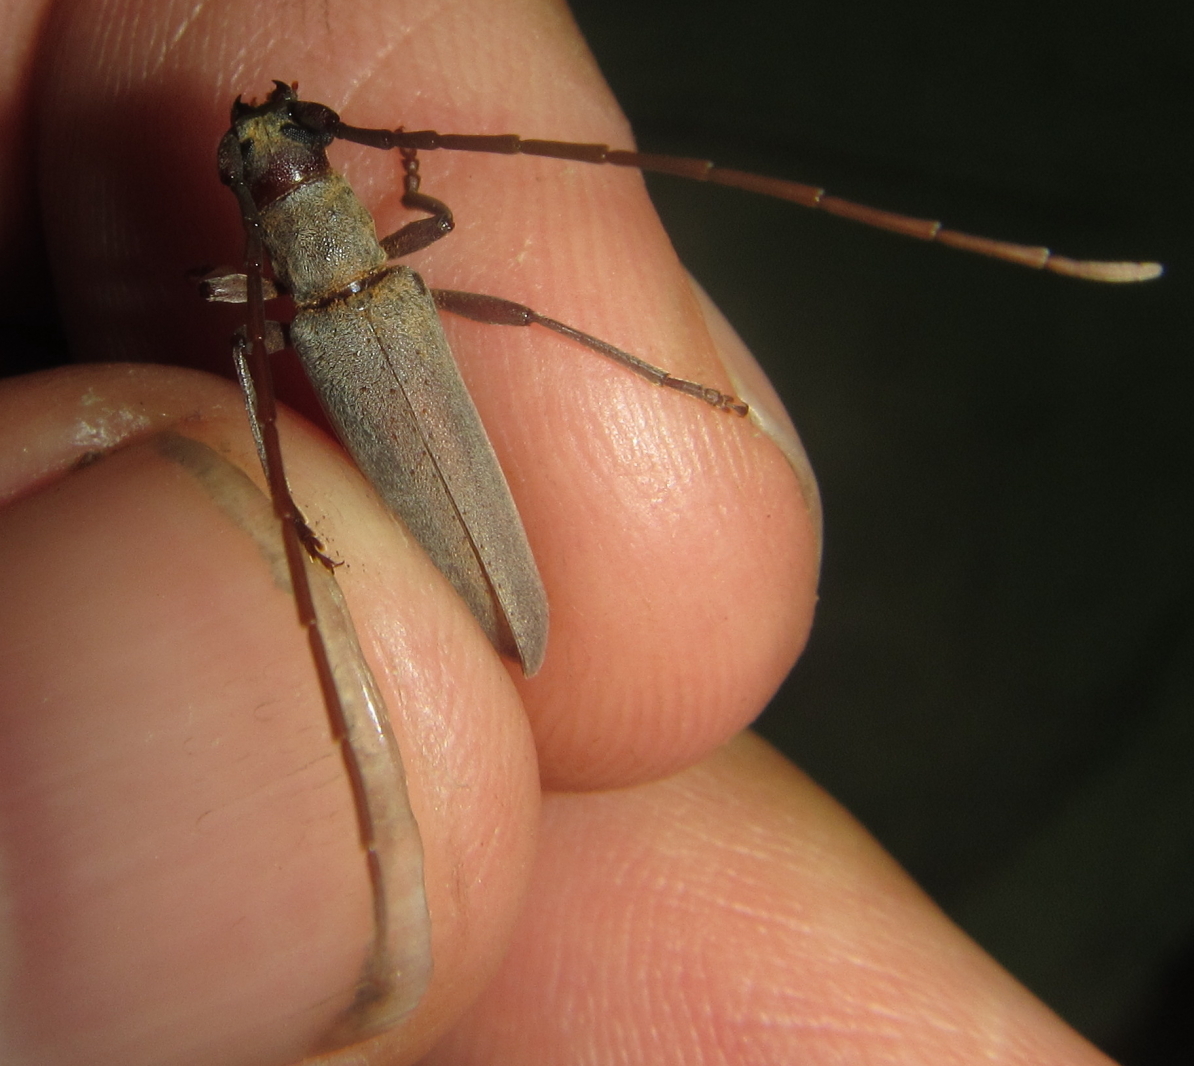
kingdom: Animalia
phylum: Arthropoda
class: Insecta
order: Coleoptera
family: Cerambycidae
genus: Paroeme
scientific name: Paroeme meridionalis
